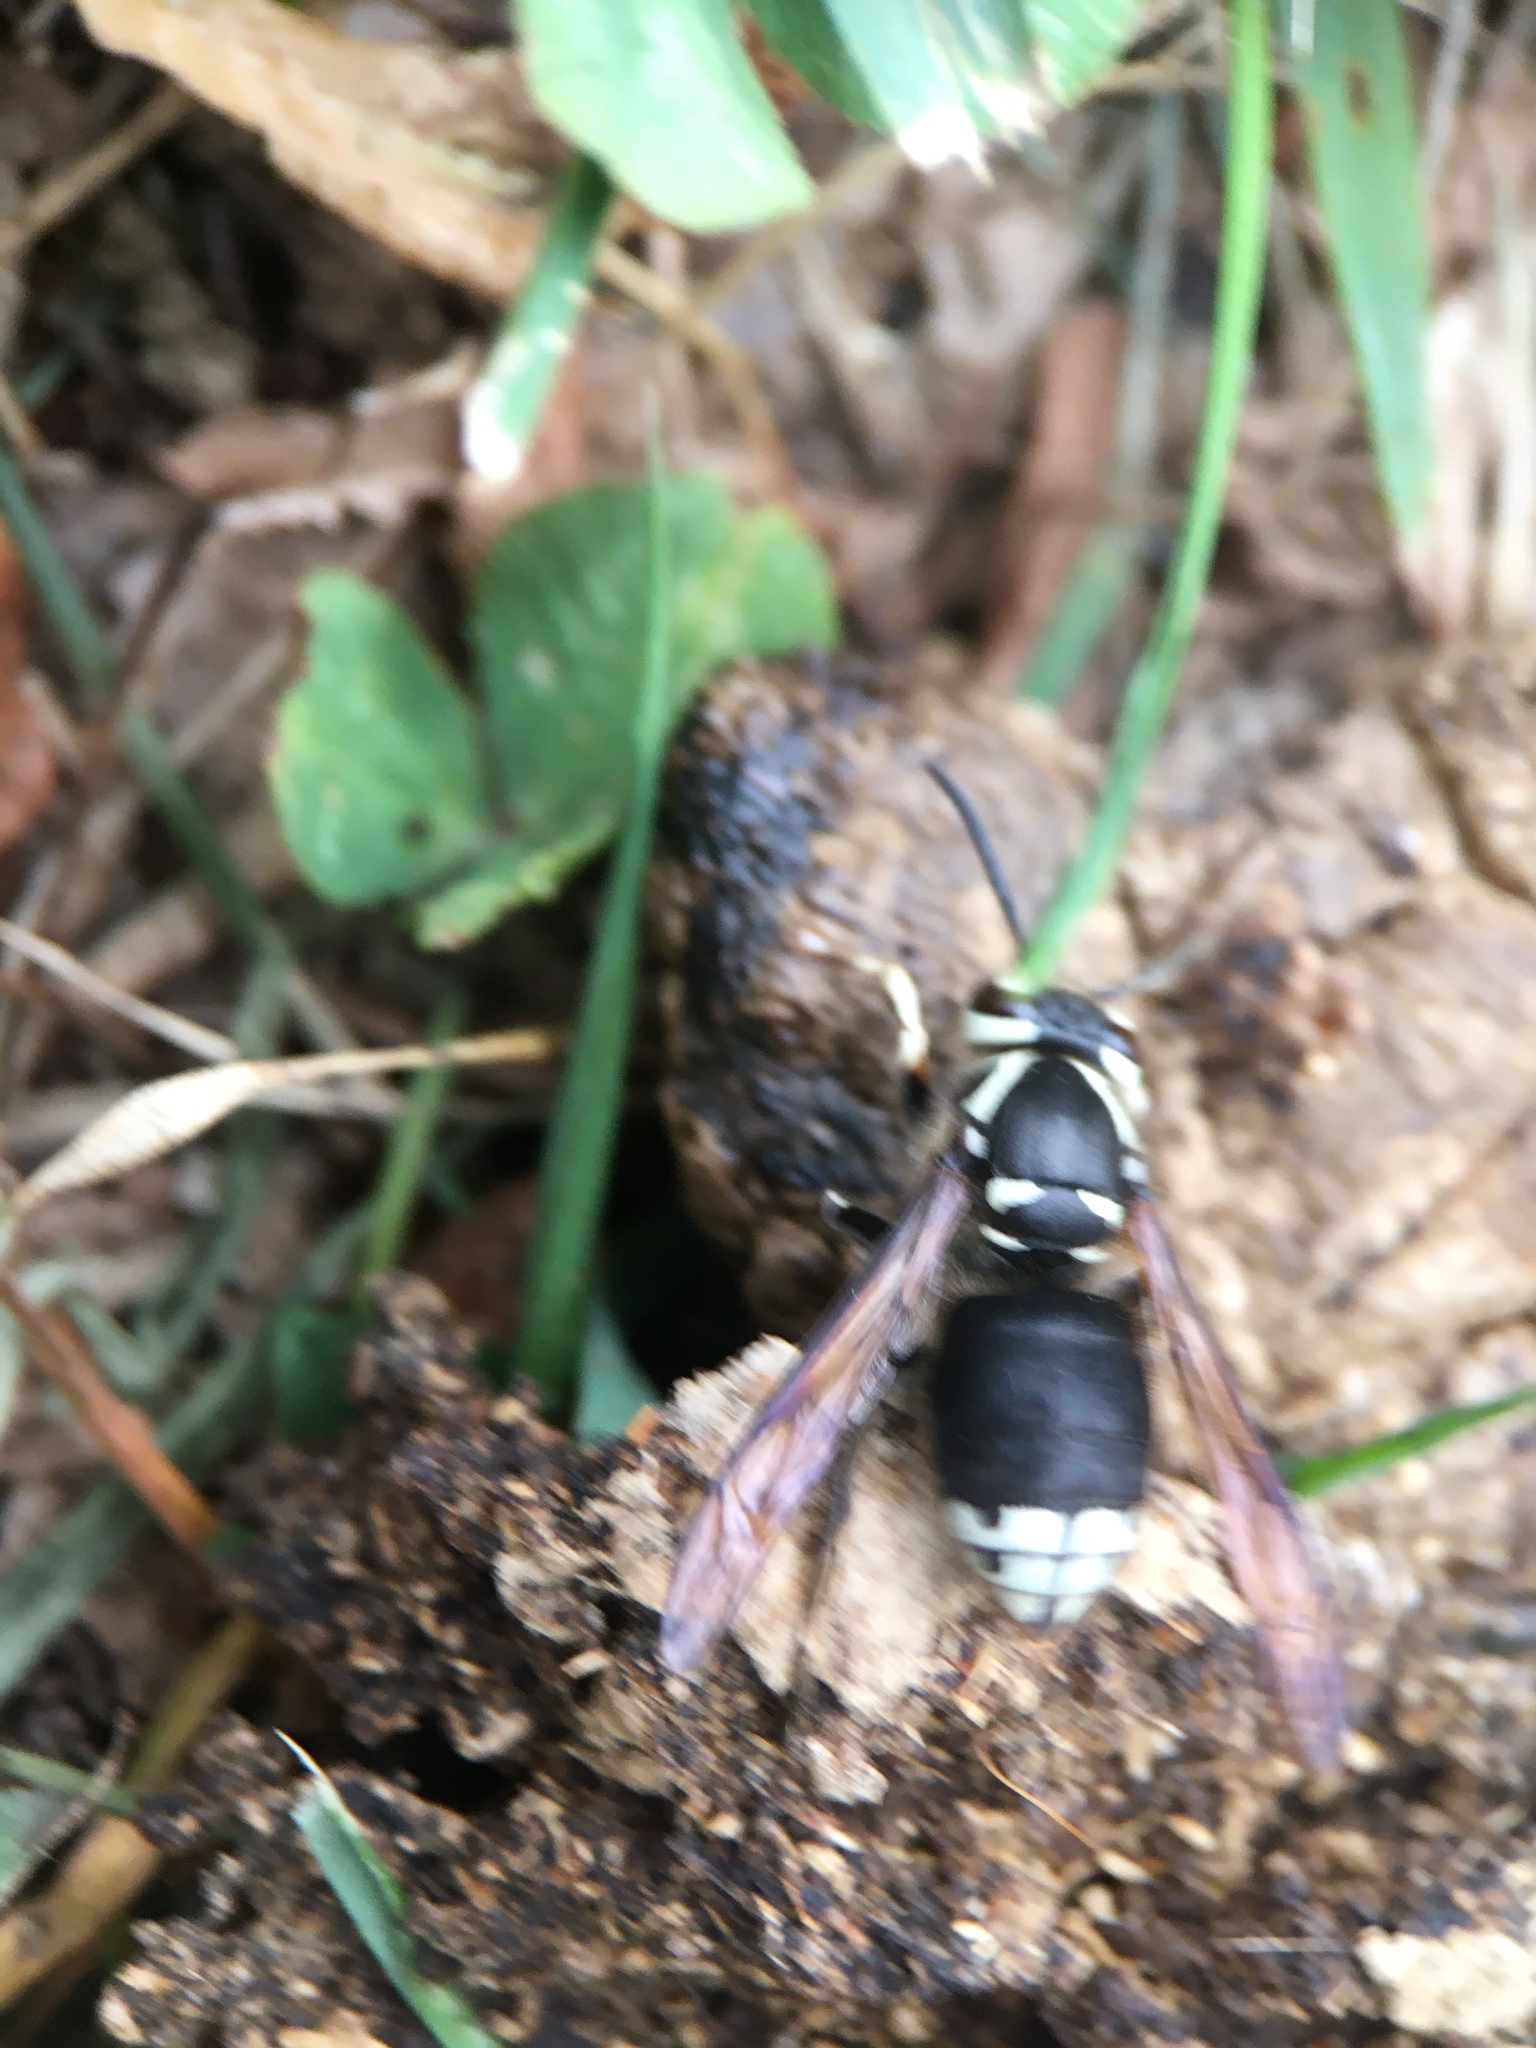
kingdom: Animalia
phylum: Arthropoda
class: Insecta
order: Hymenoptera
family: Vespidae
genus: Dolichovespula
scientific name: Dolichovespula maculata
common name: Bald-faced hornet
